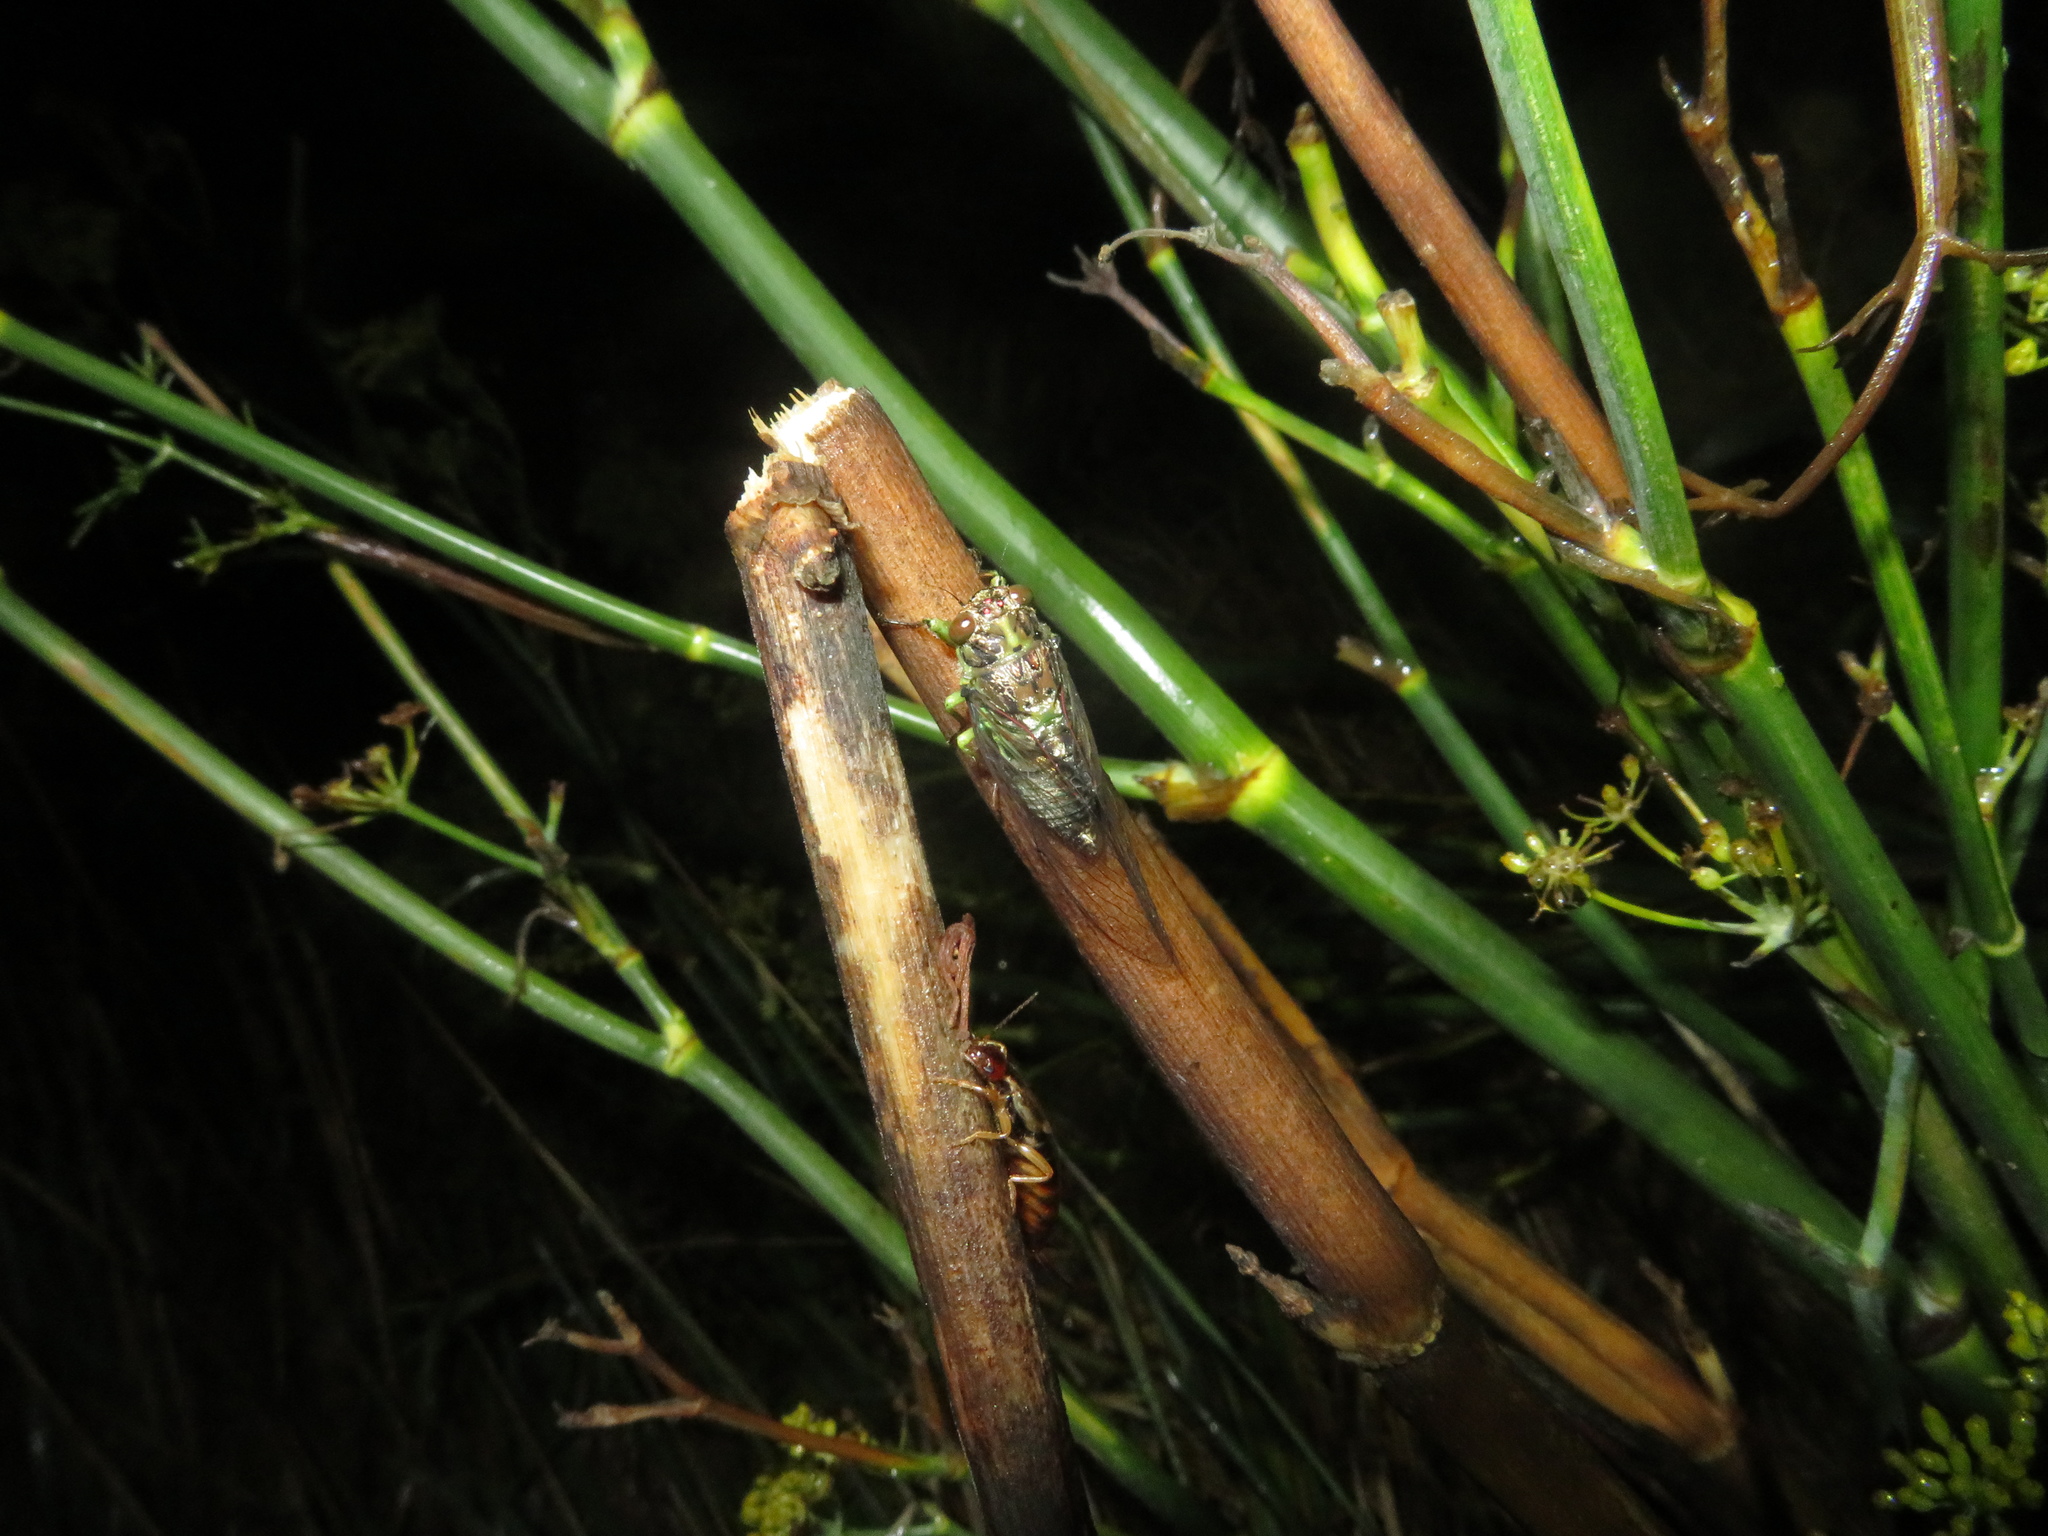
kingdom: Animalia
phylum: Arthropoda
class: Insecta
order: Hemiptera
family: Cicadidae
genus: Kikihia
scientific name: Kikihia scutellaris
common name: Lesser bronze cicada
